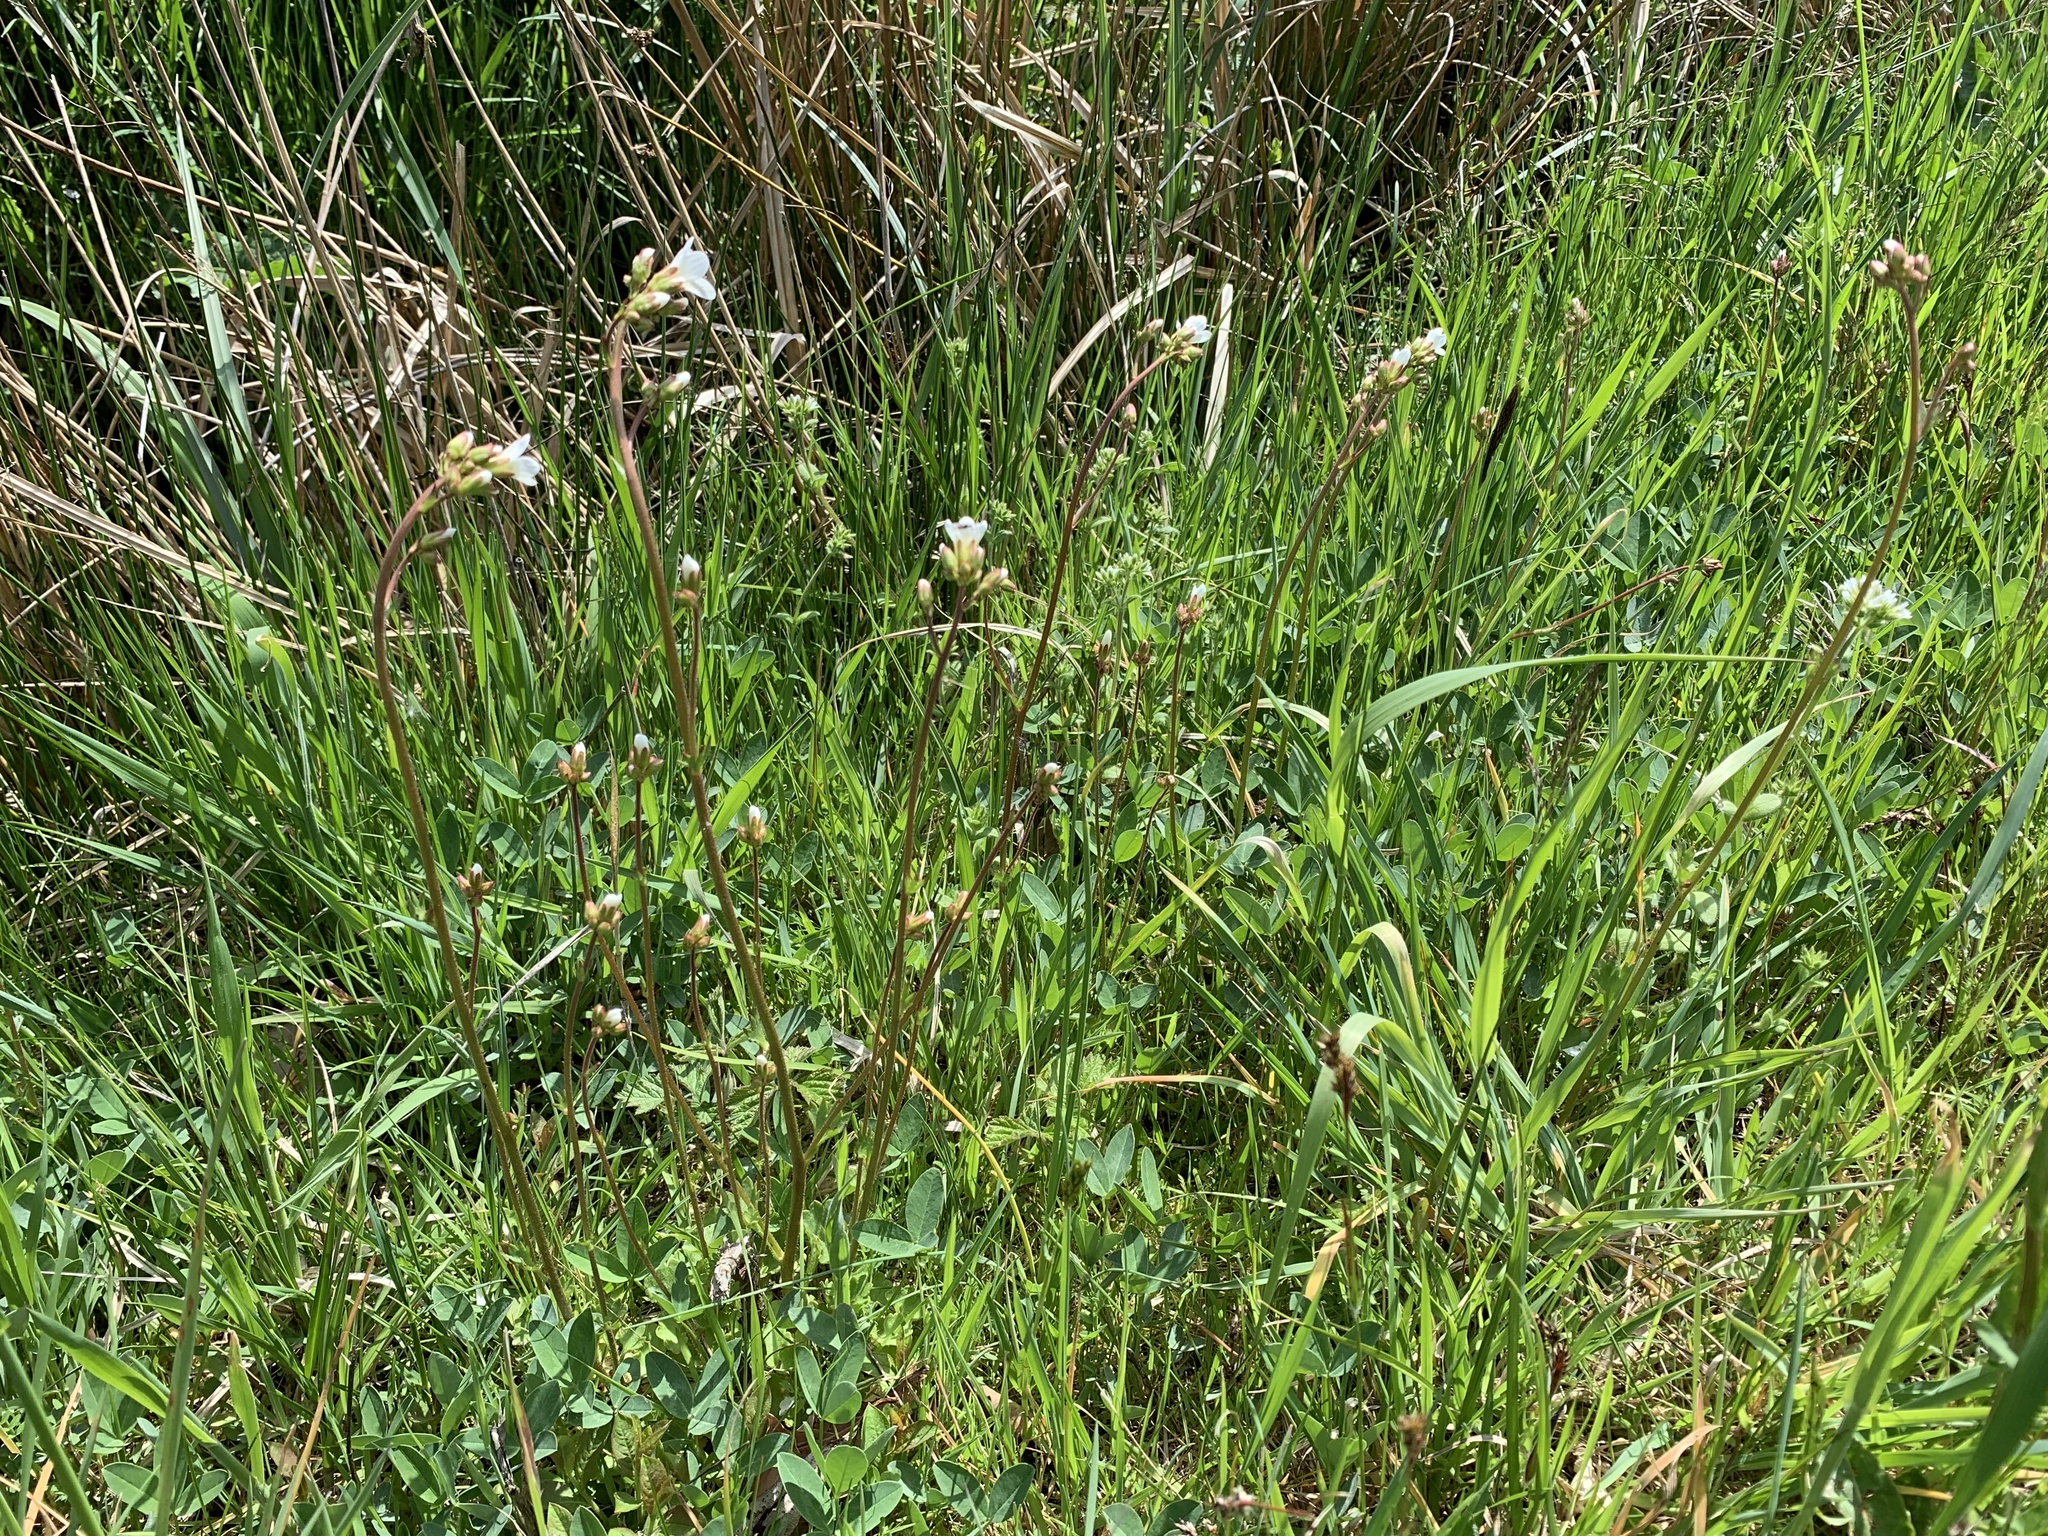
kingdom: Plantae
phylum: Tracheophyta
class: Magnoliopsida
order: Saxifragales
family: Saxifragaceae
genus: Saxifraga
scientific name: Saxifraga granulata
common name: Meadow saxifrage
